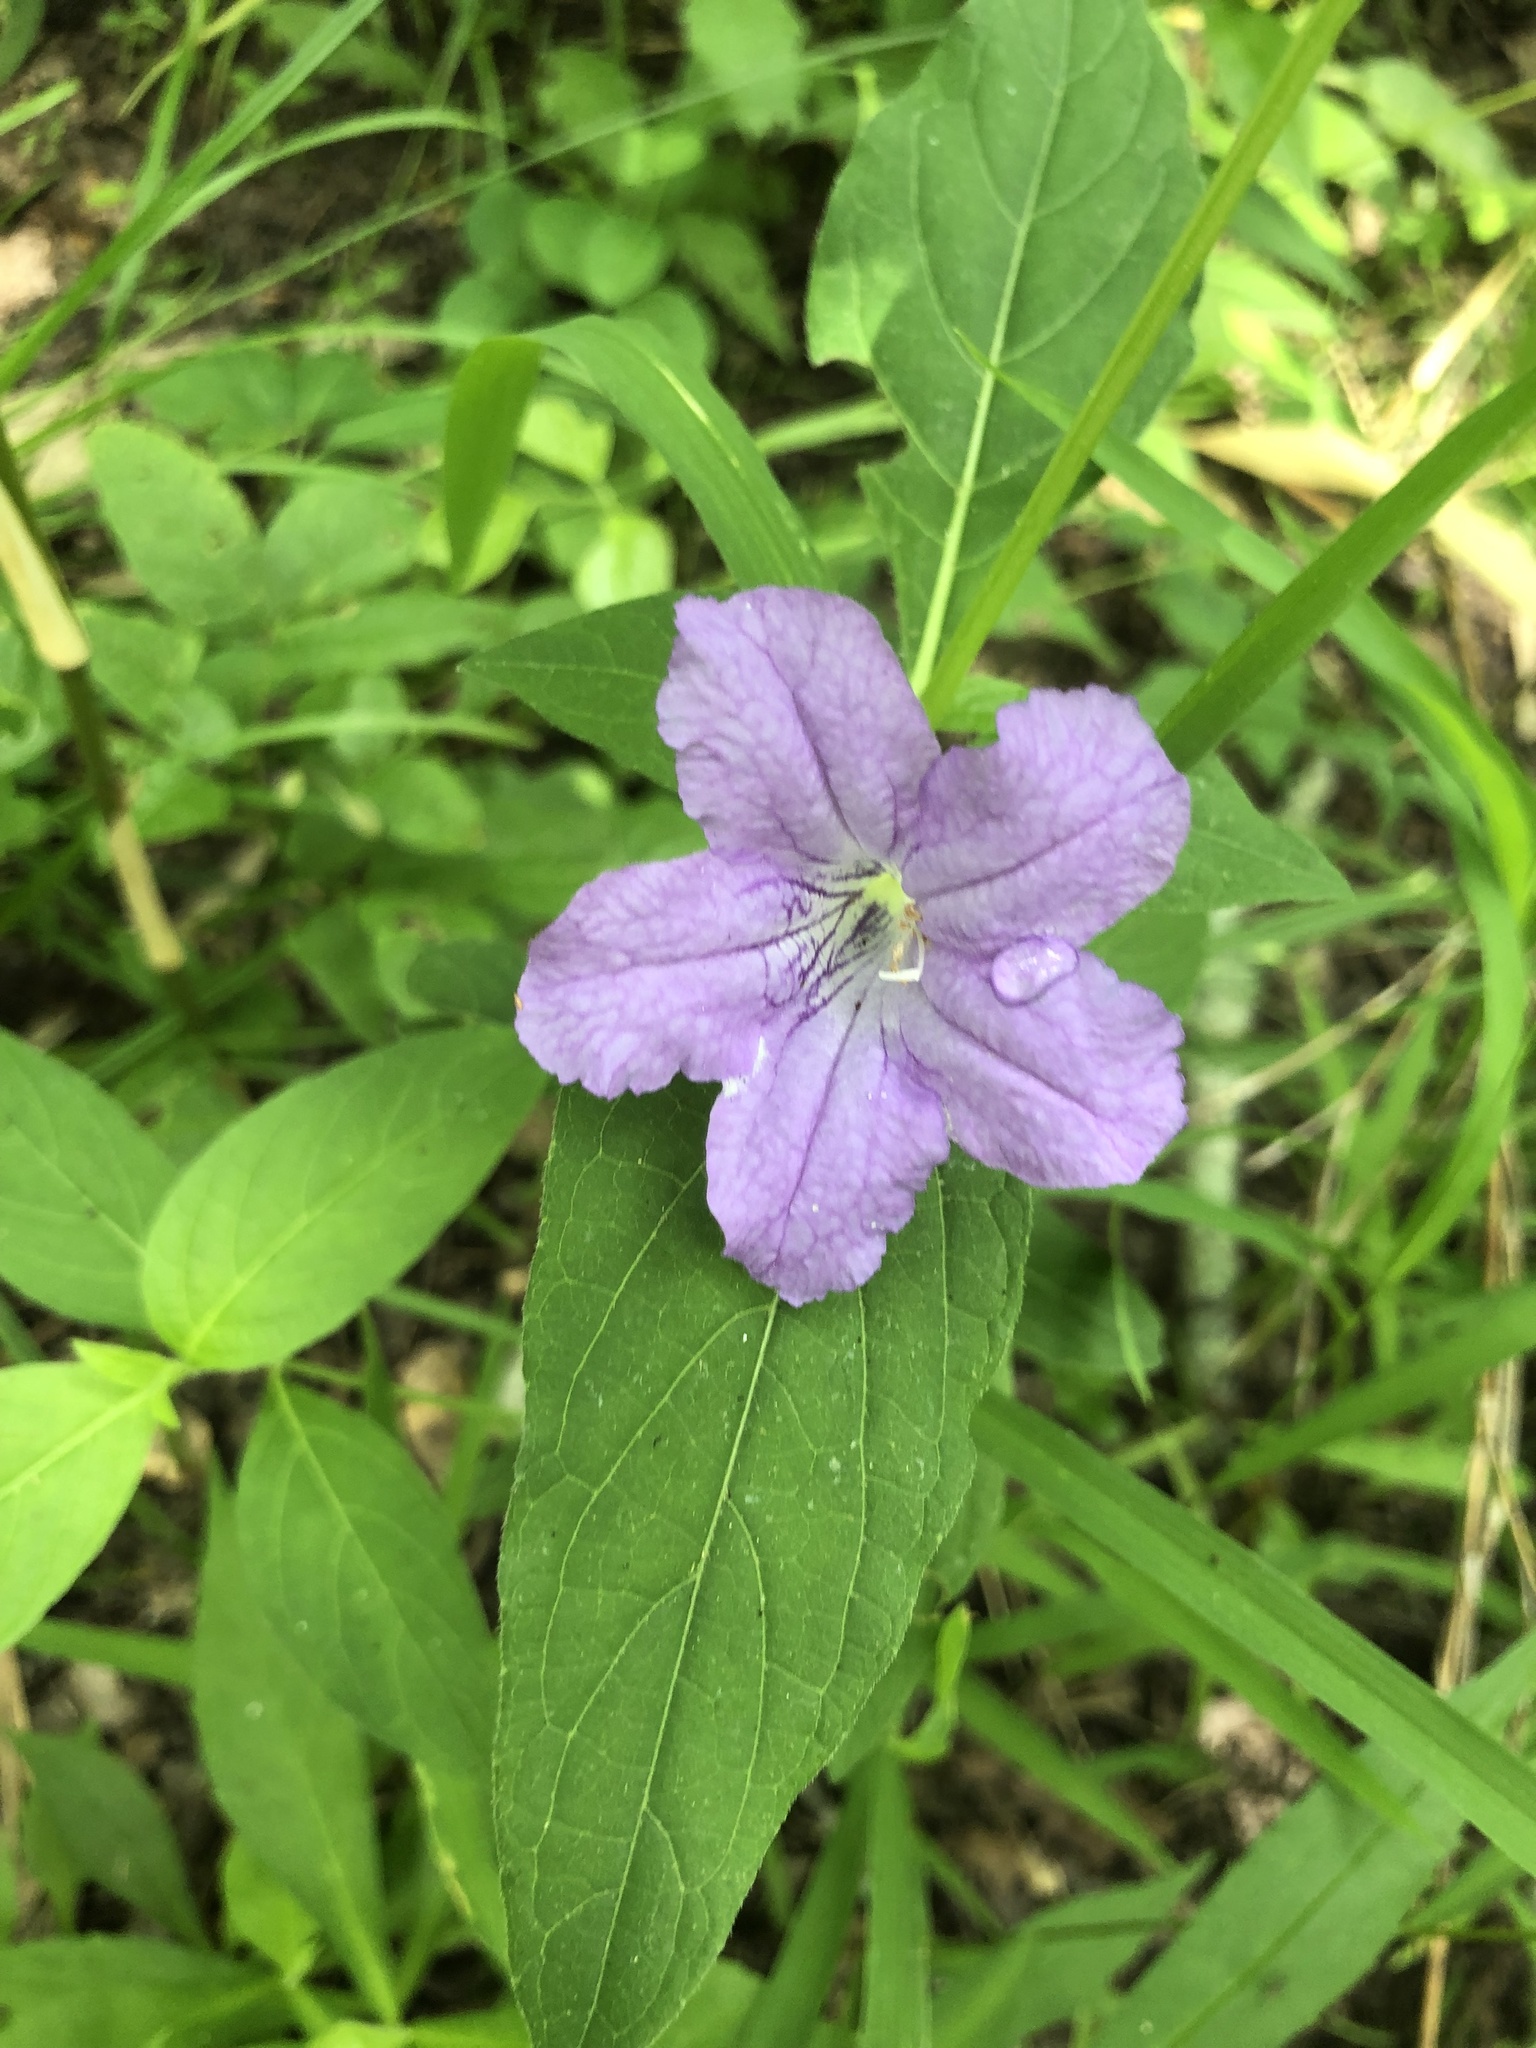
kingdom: Plantae
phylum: Tracheophyta
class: Magnoliopsida
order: Lamiales
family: Acanthaceae
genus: Ruellia
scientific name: Ruellia strepens
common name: Limestone wild petunia
